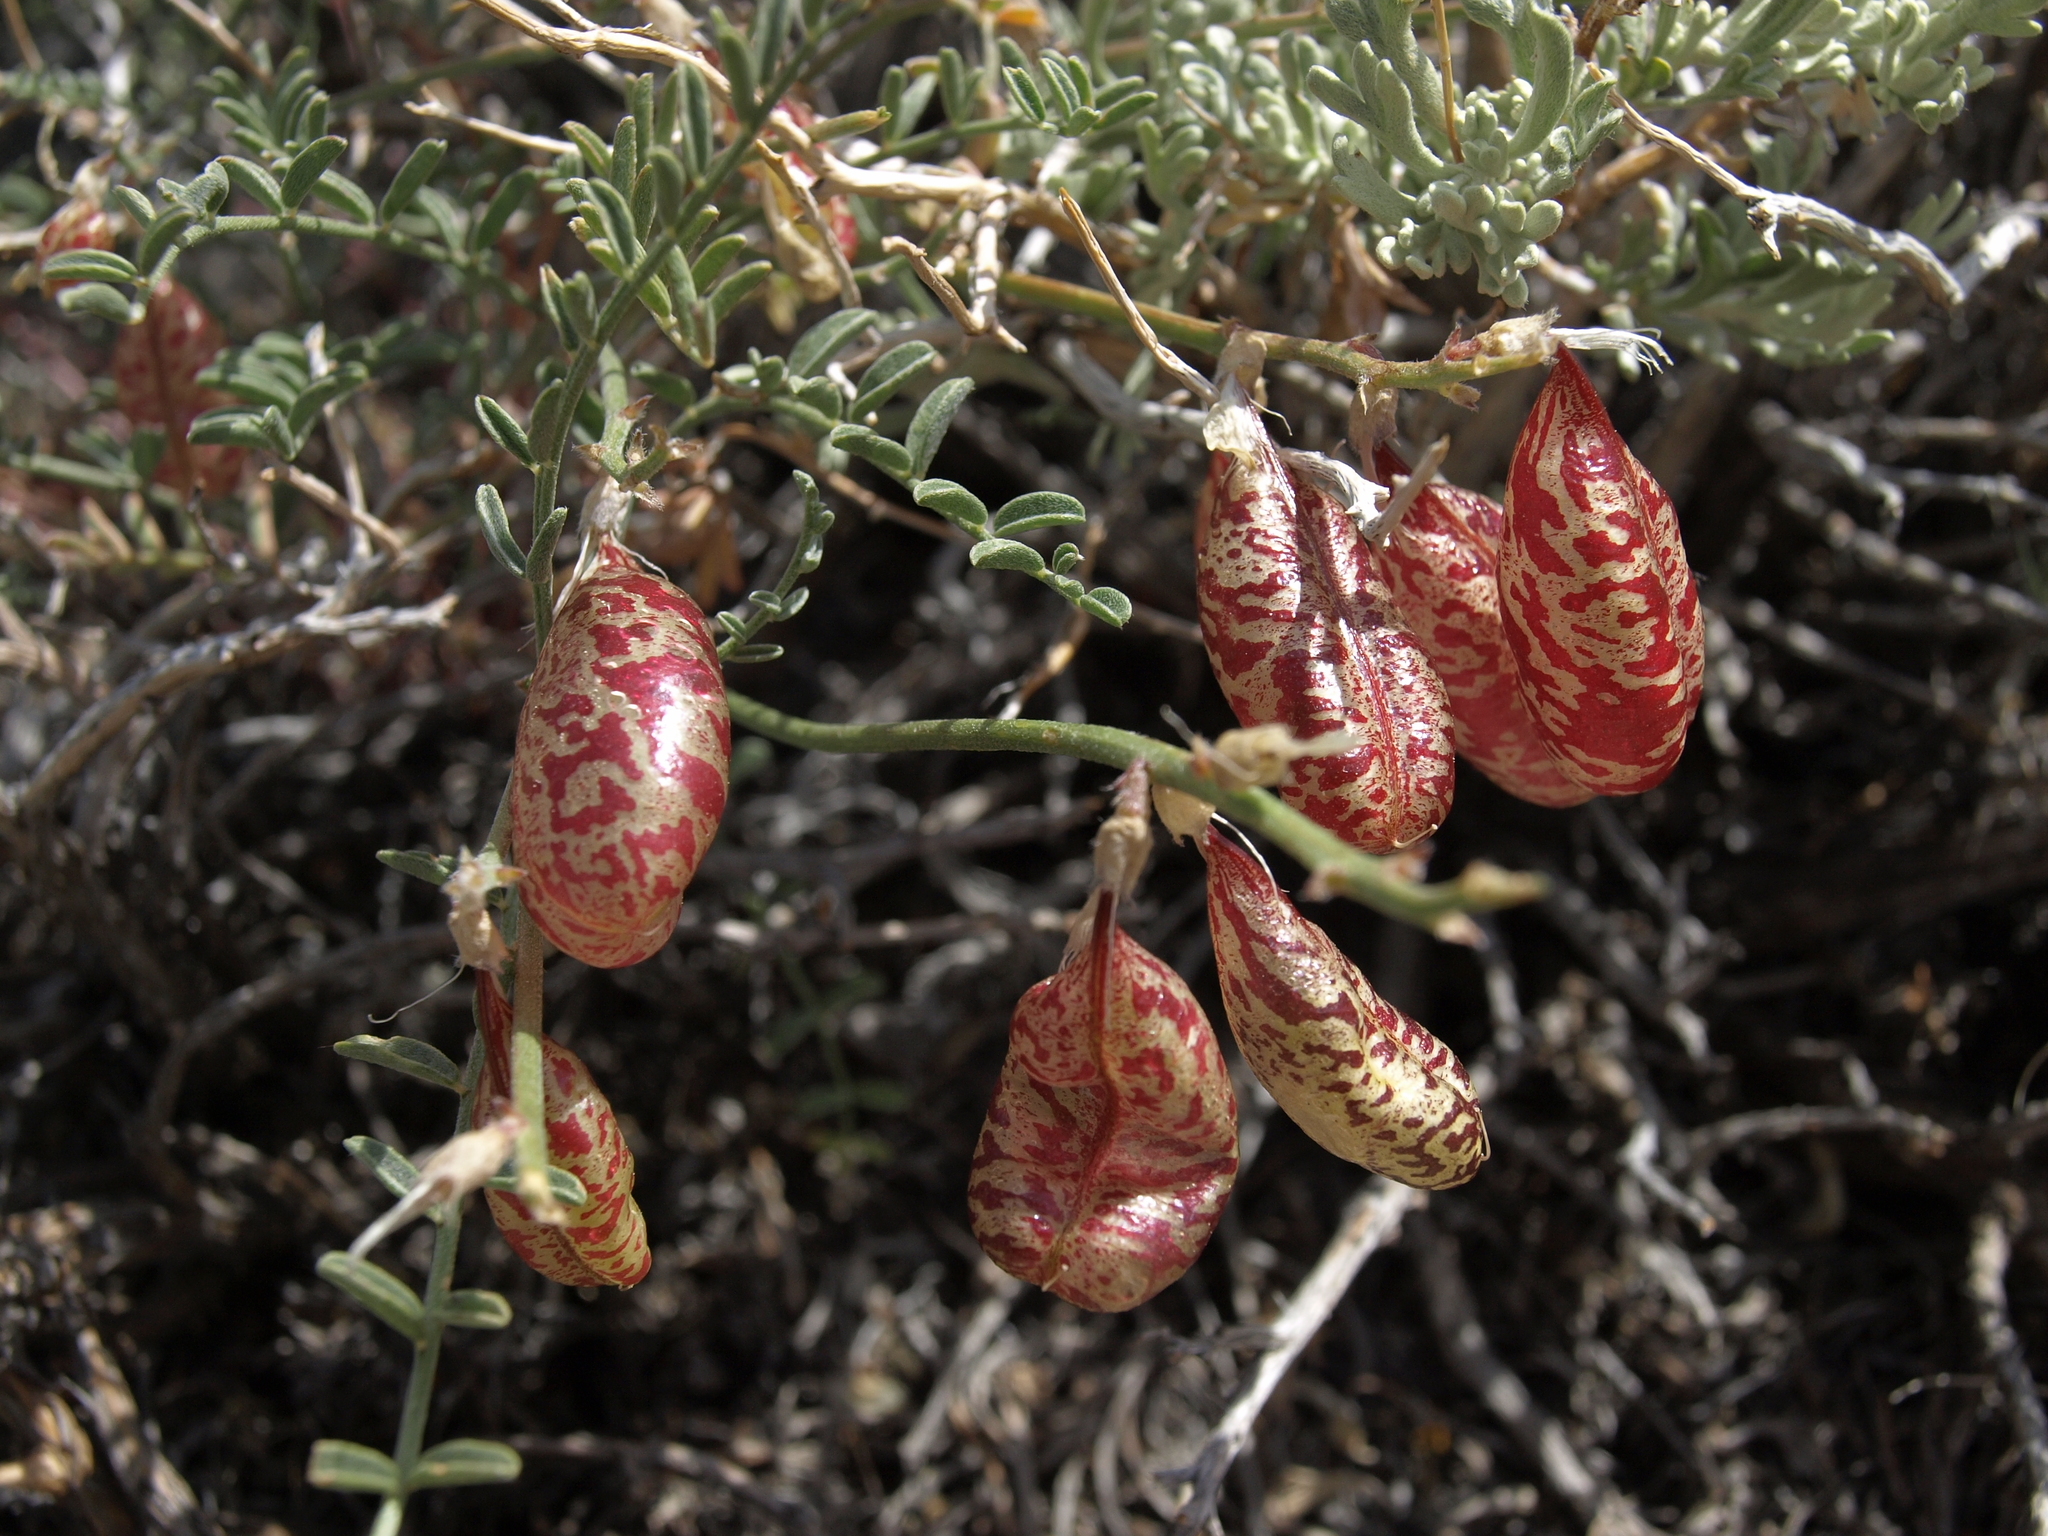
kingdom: Plantae
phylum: Tracheophyta
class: Magnoliopsida
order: Fabales
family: Fabaceae
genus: Astragalus
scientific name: Astragalus whitneyi
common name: Balloonpod milkvetch
